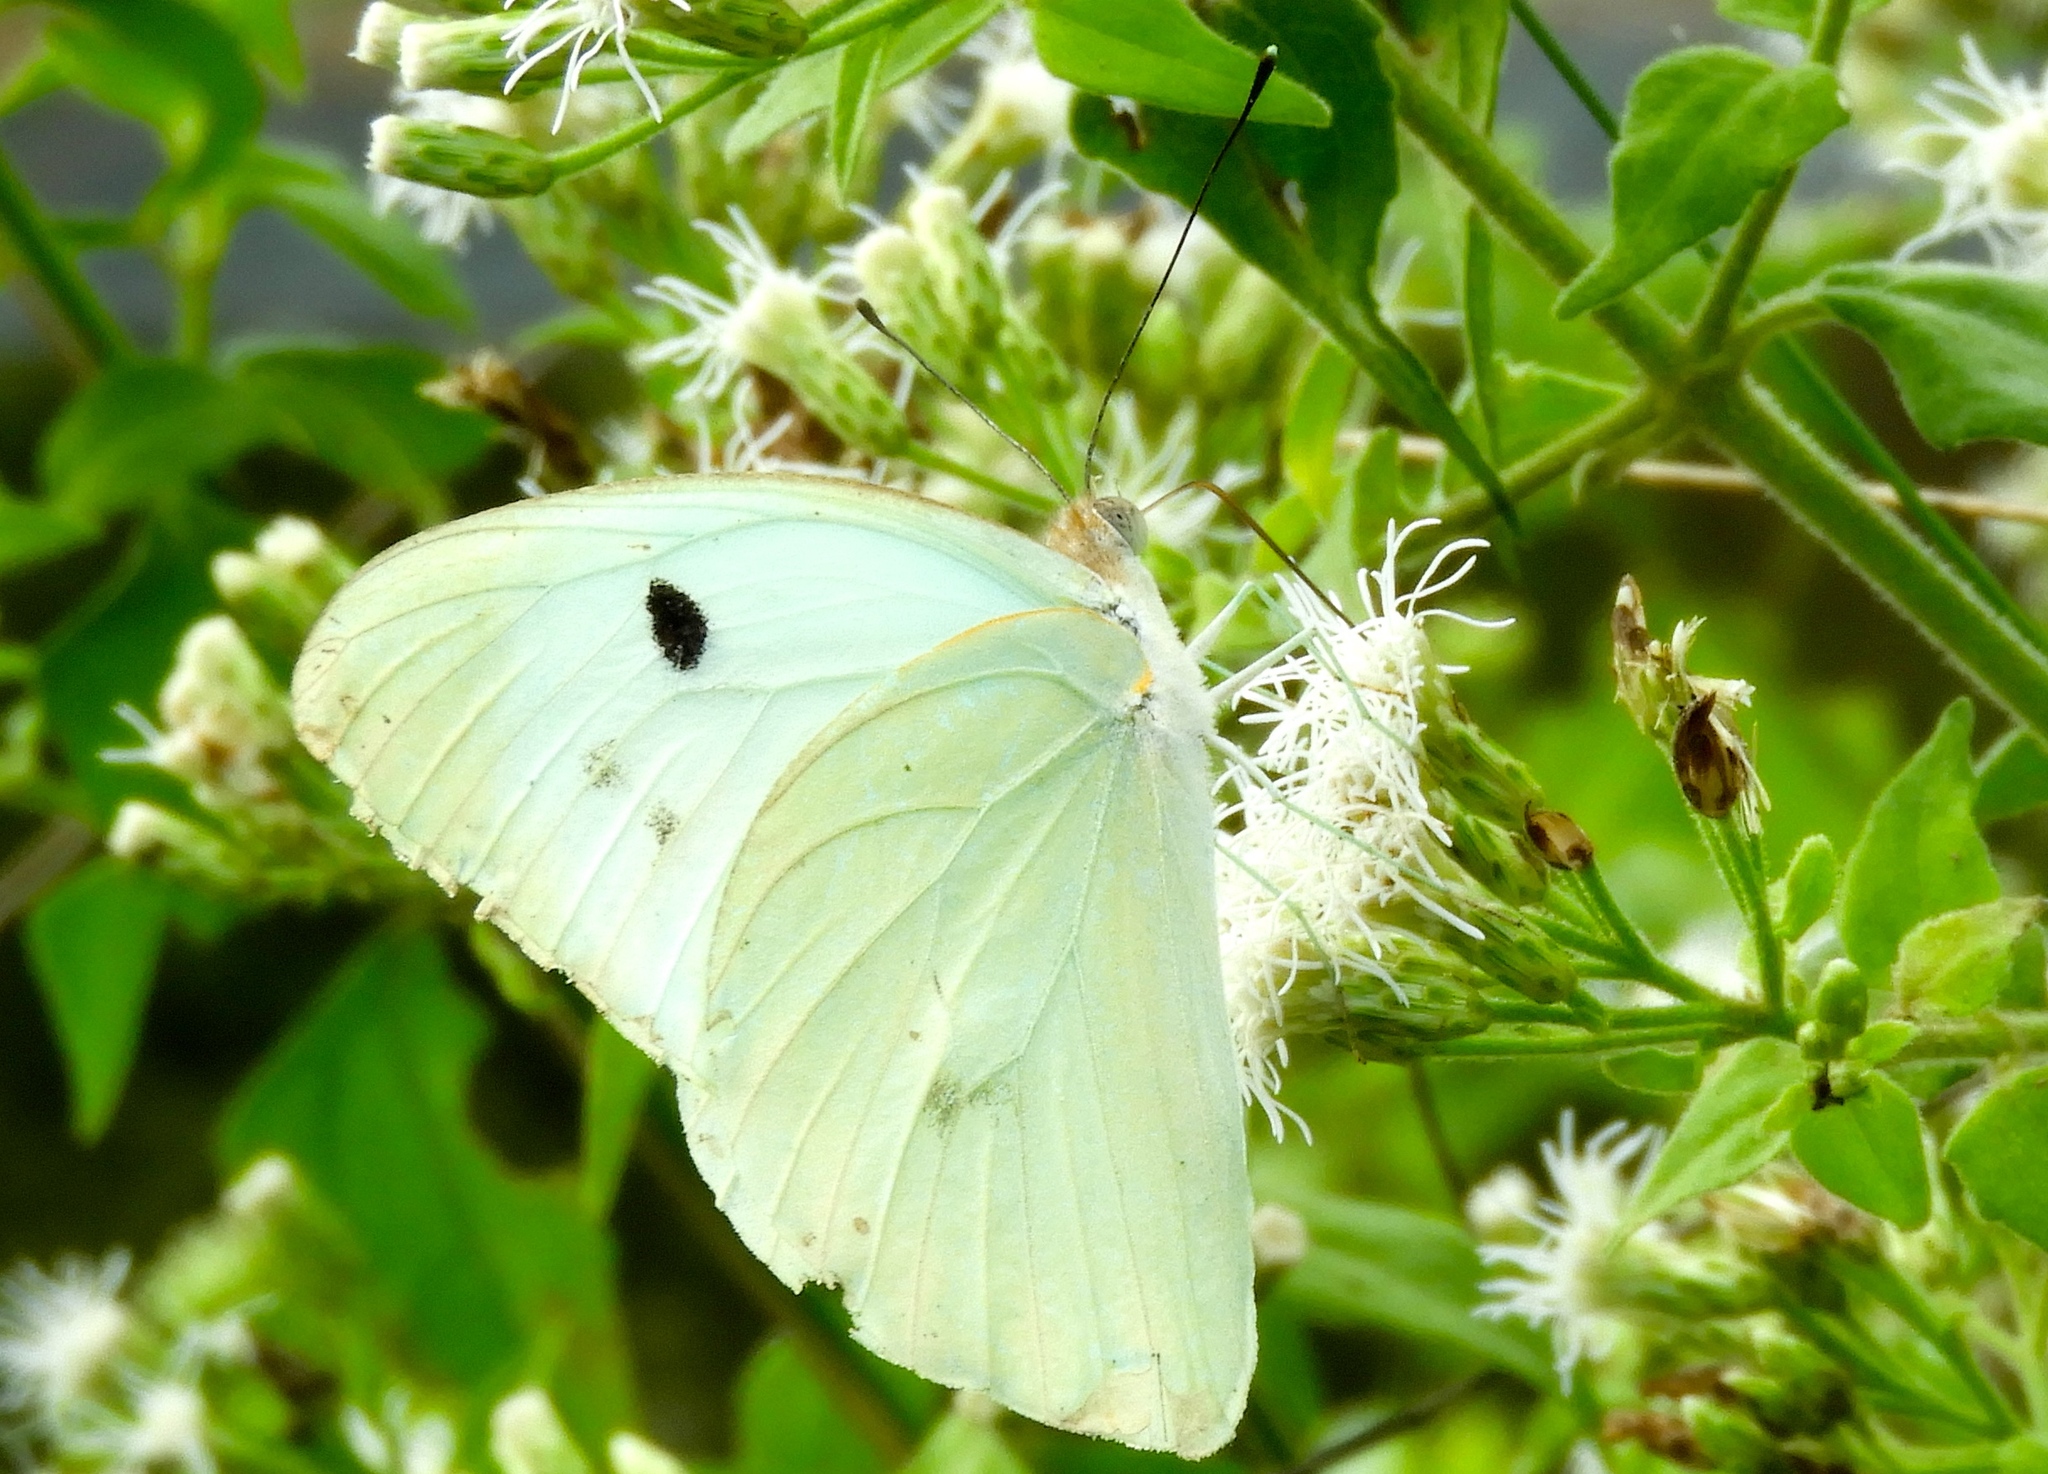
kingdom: Animalia
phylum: Arthropoda
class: Insecta
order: Lepidoptera
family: Pieridae
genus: Ganyra
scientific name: Ganyra josephina
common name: Giant white
